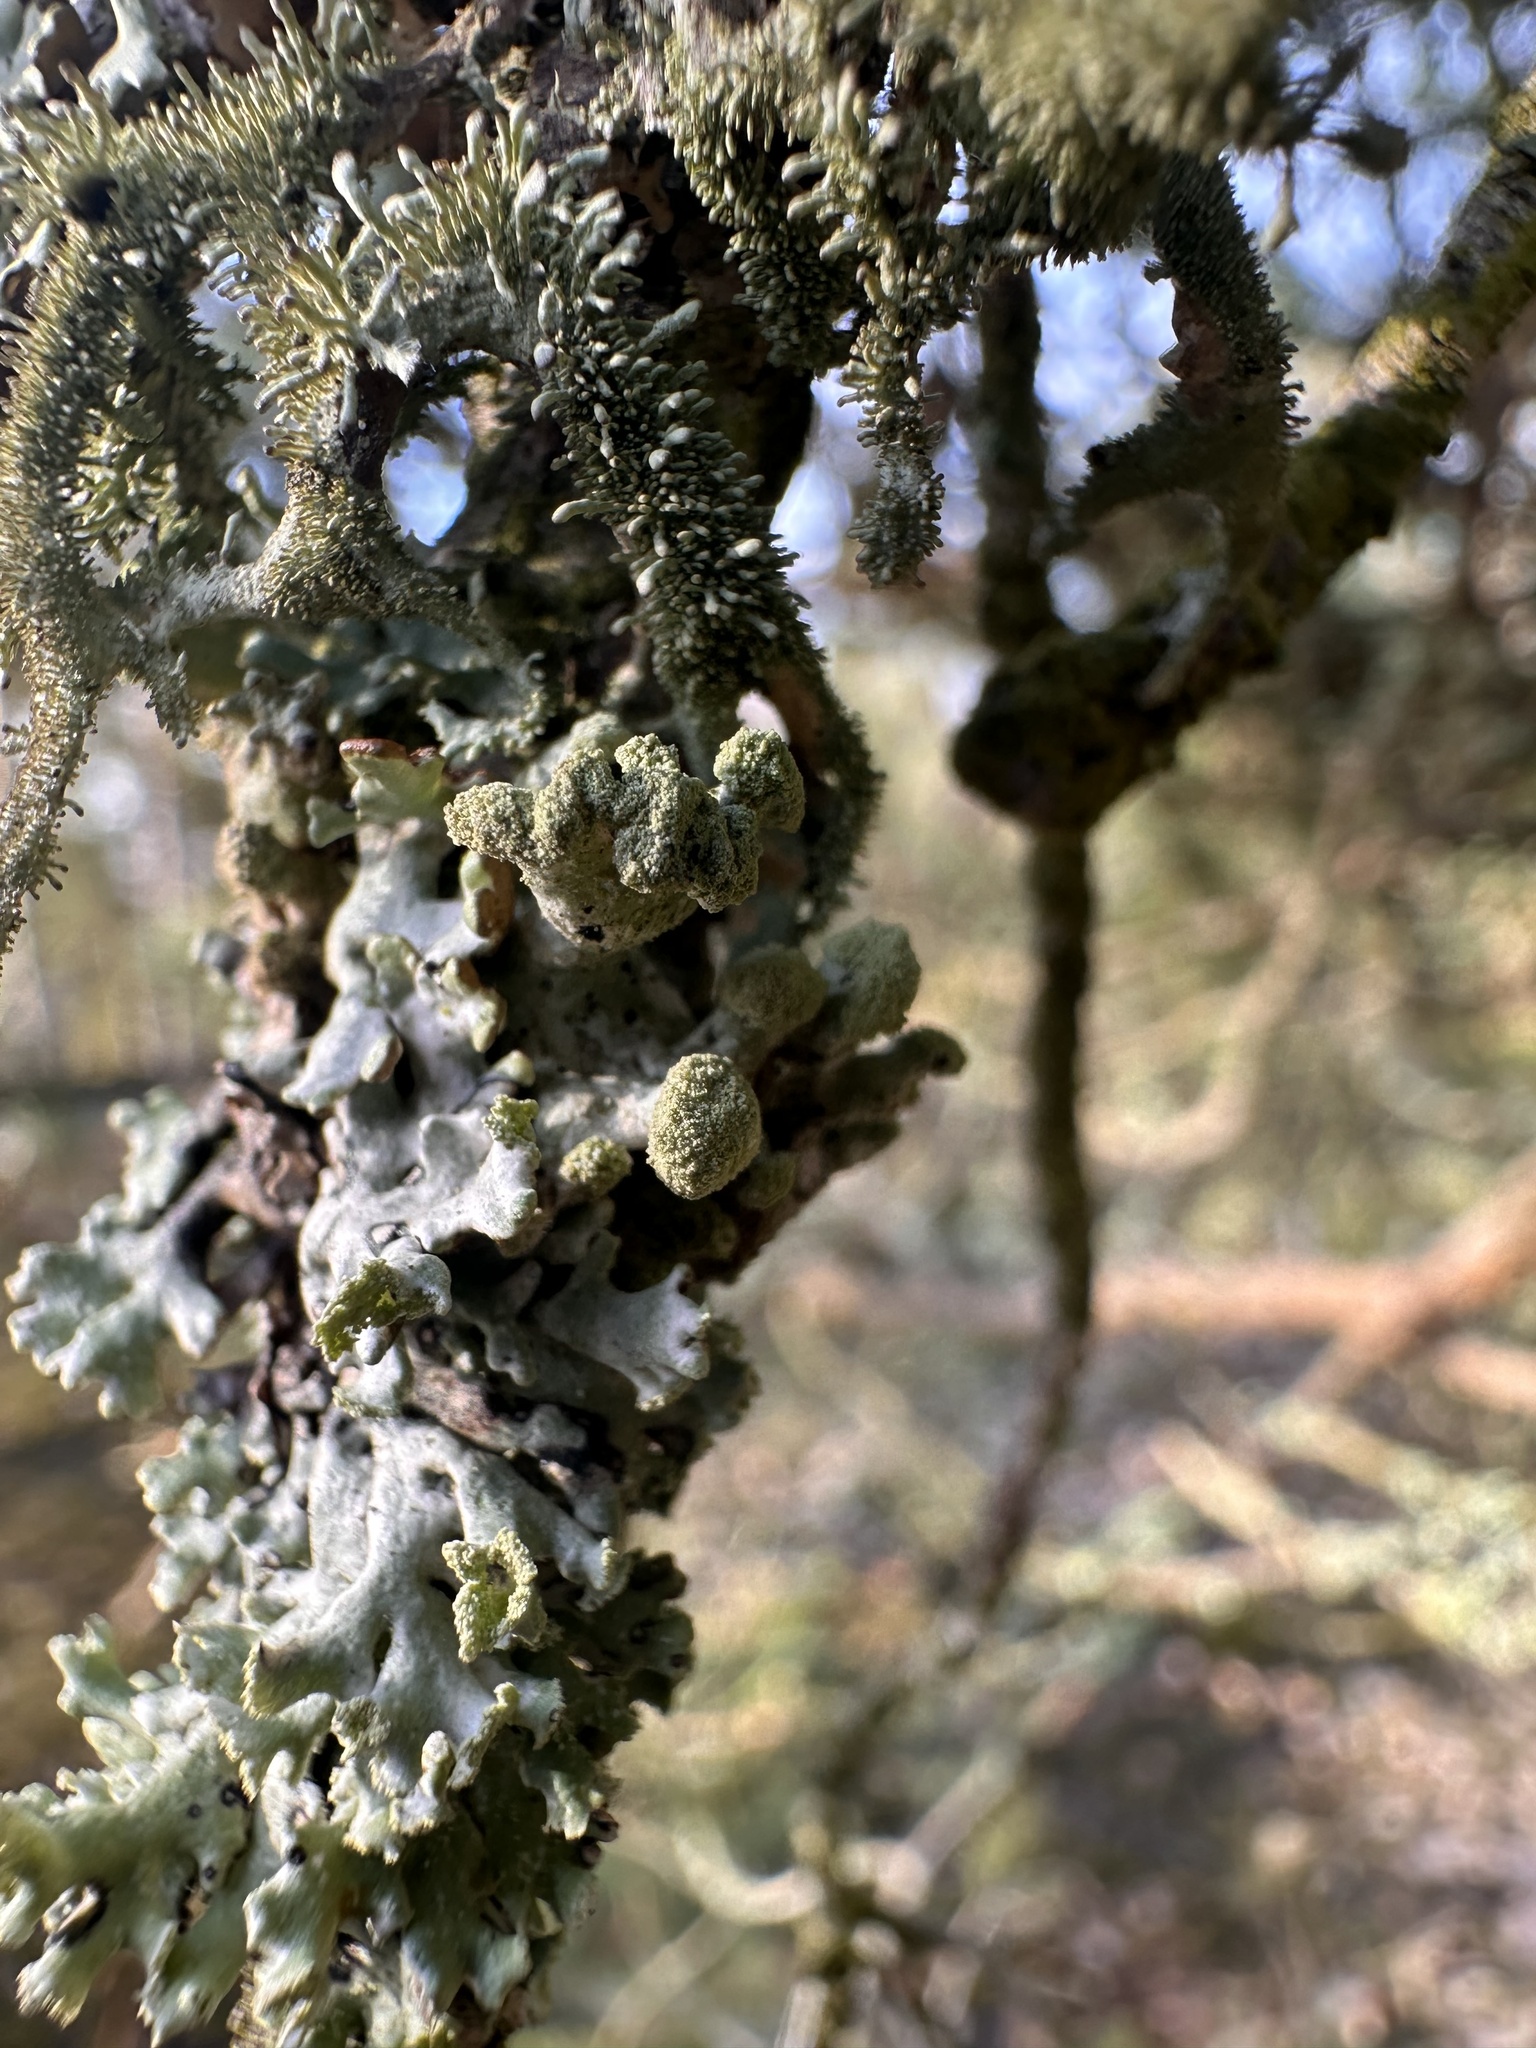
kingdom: Fungi
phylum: Ascomycota
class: Lecanoromycetes
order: Lecanorales
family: Parmeliaceae
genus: Hypogymnia
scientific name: Hypogymnia tubulosa
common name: Powder-headed tube lichen
